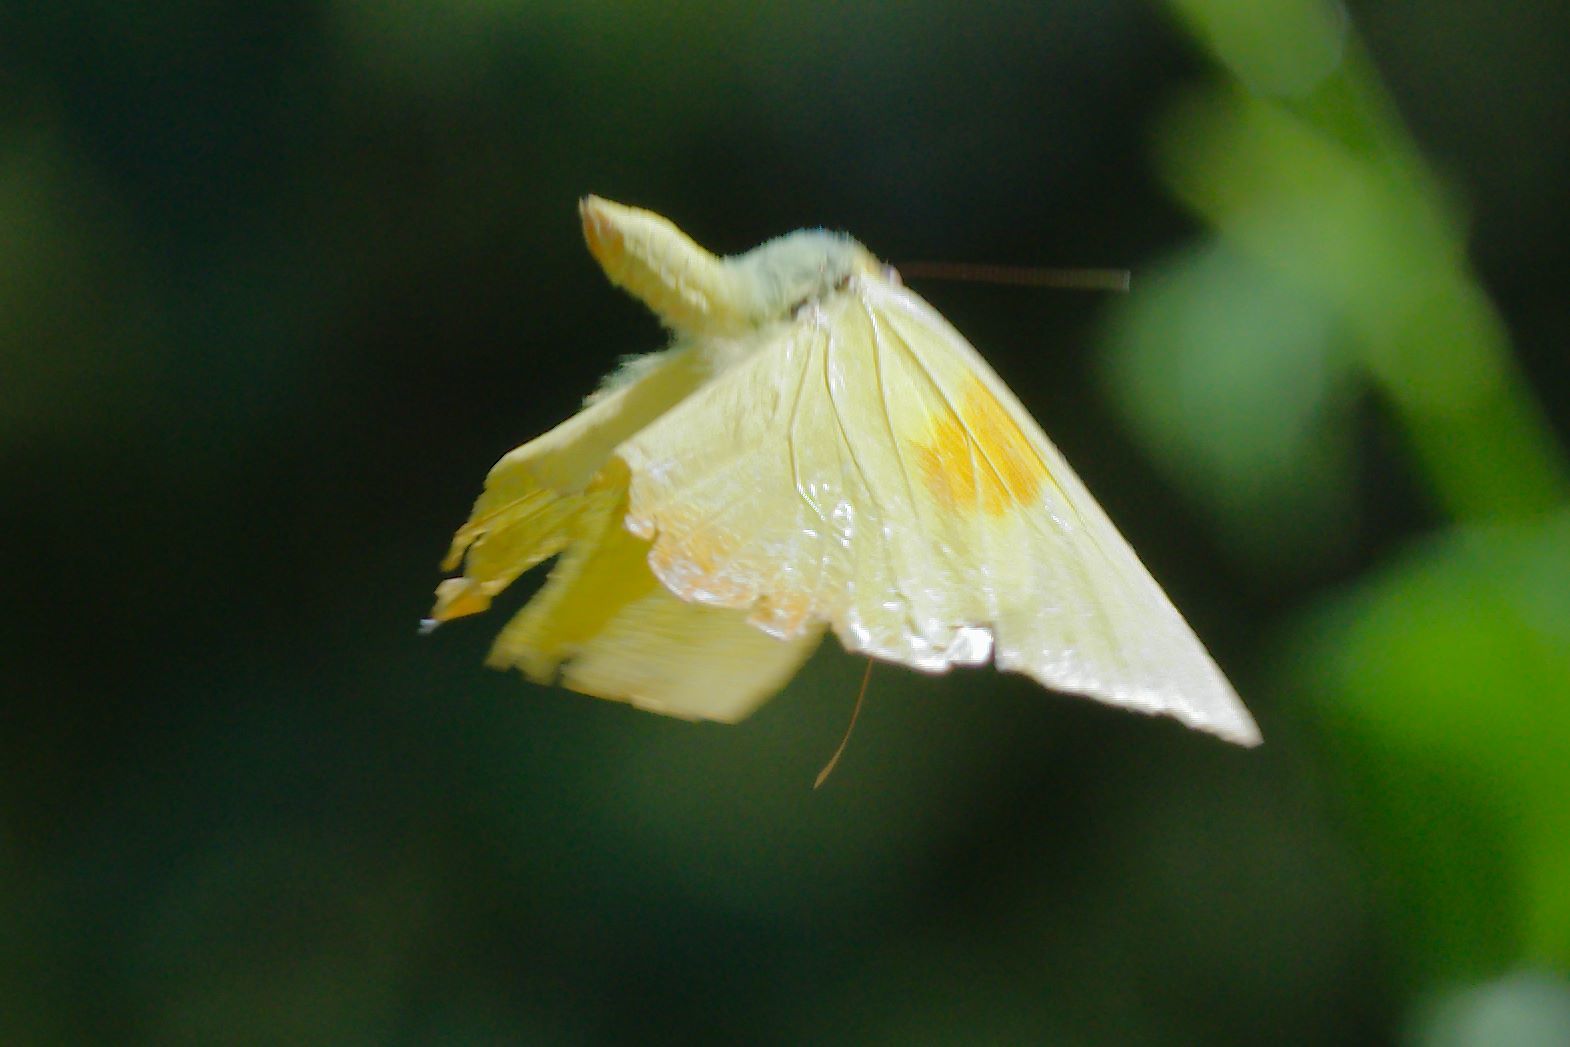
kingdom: Animalia
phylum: Arthropoda
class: Insecta
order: Lepidoptera
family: Pieridae
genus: Phoebis
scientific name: Phoebis philea
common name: Orange-barred giant sulphur
